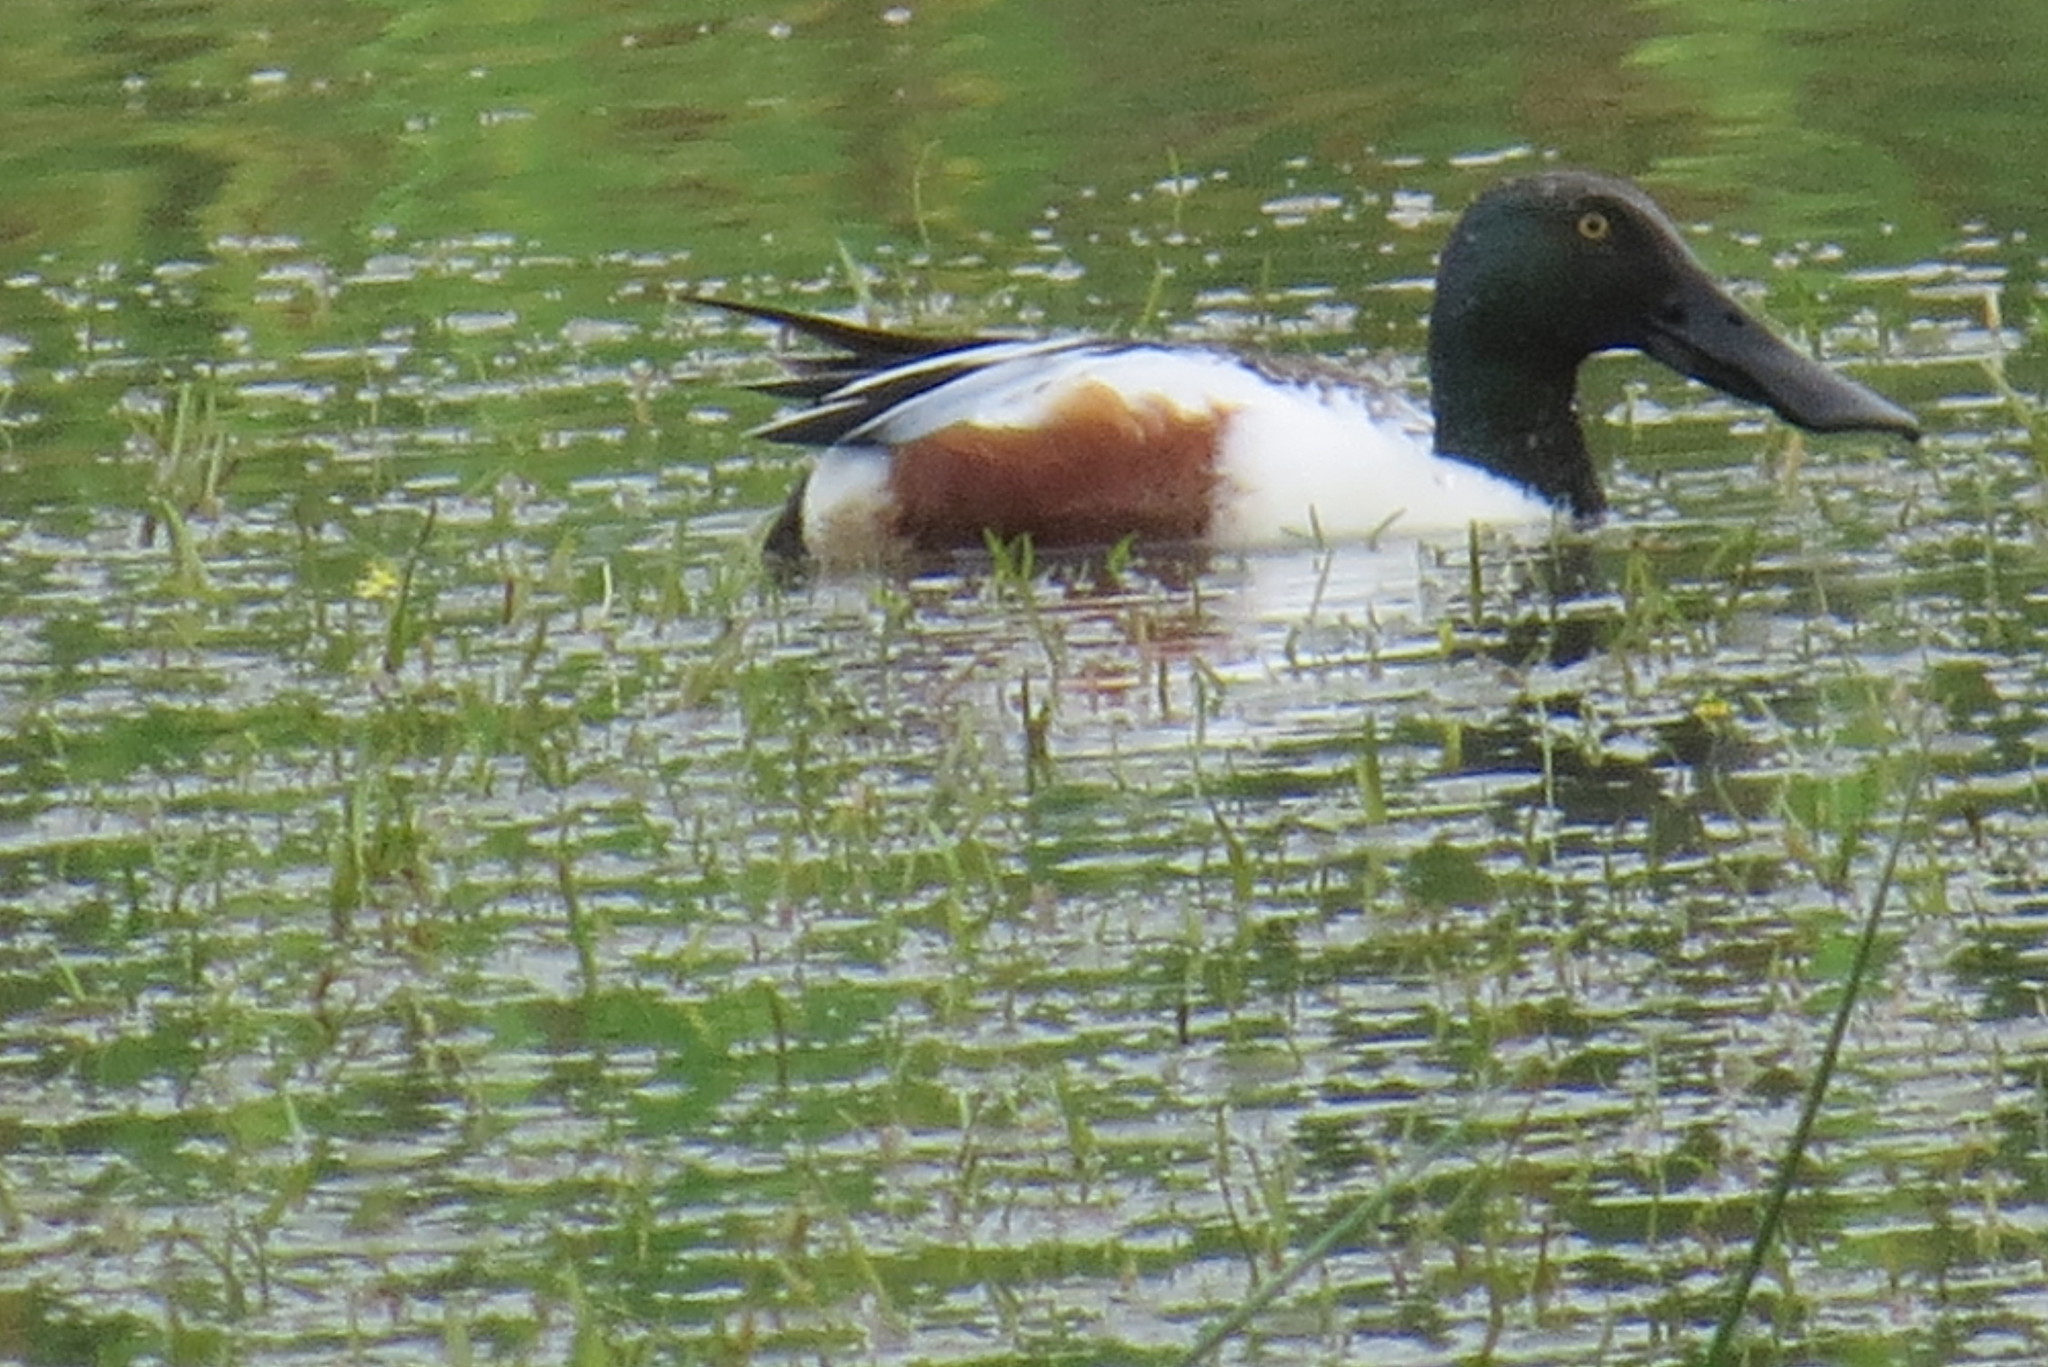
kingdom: Animalia
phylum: Chordata
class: Aves
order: Anseriformes
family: Anatidae
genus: Spatula
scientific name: Spatula clypeata
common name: Northern shoveler
